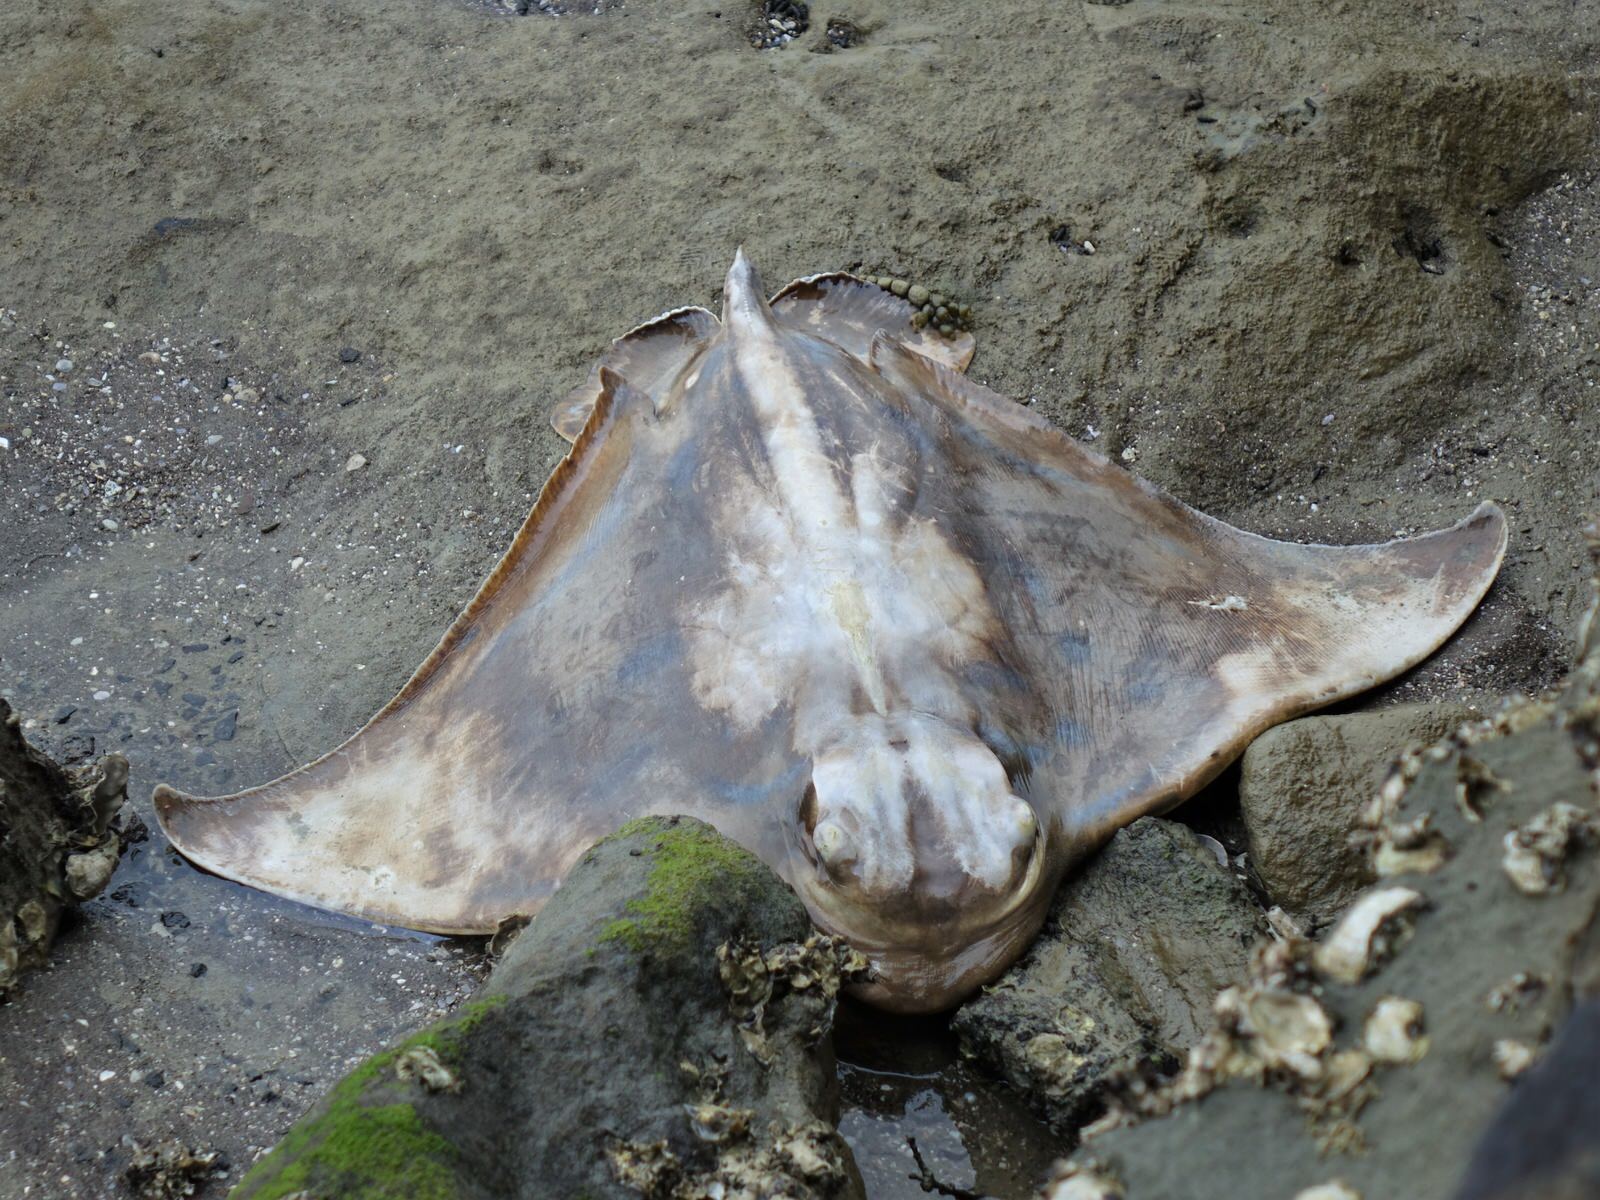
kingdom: Animalia
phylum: Chordata
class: Elasmobranchii
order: Myliobatiformes
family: Myliobatidae
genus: Myliobatis
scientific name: Myliobatis tenuicaudatus
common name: Eagle ray
